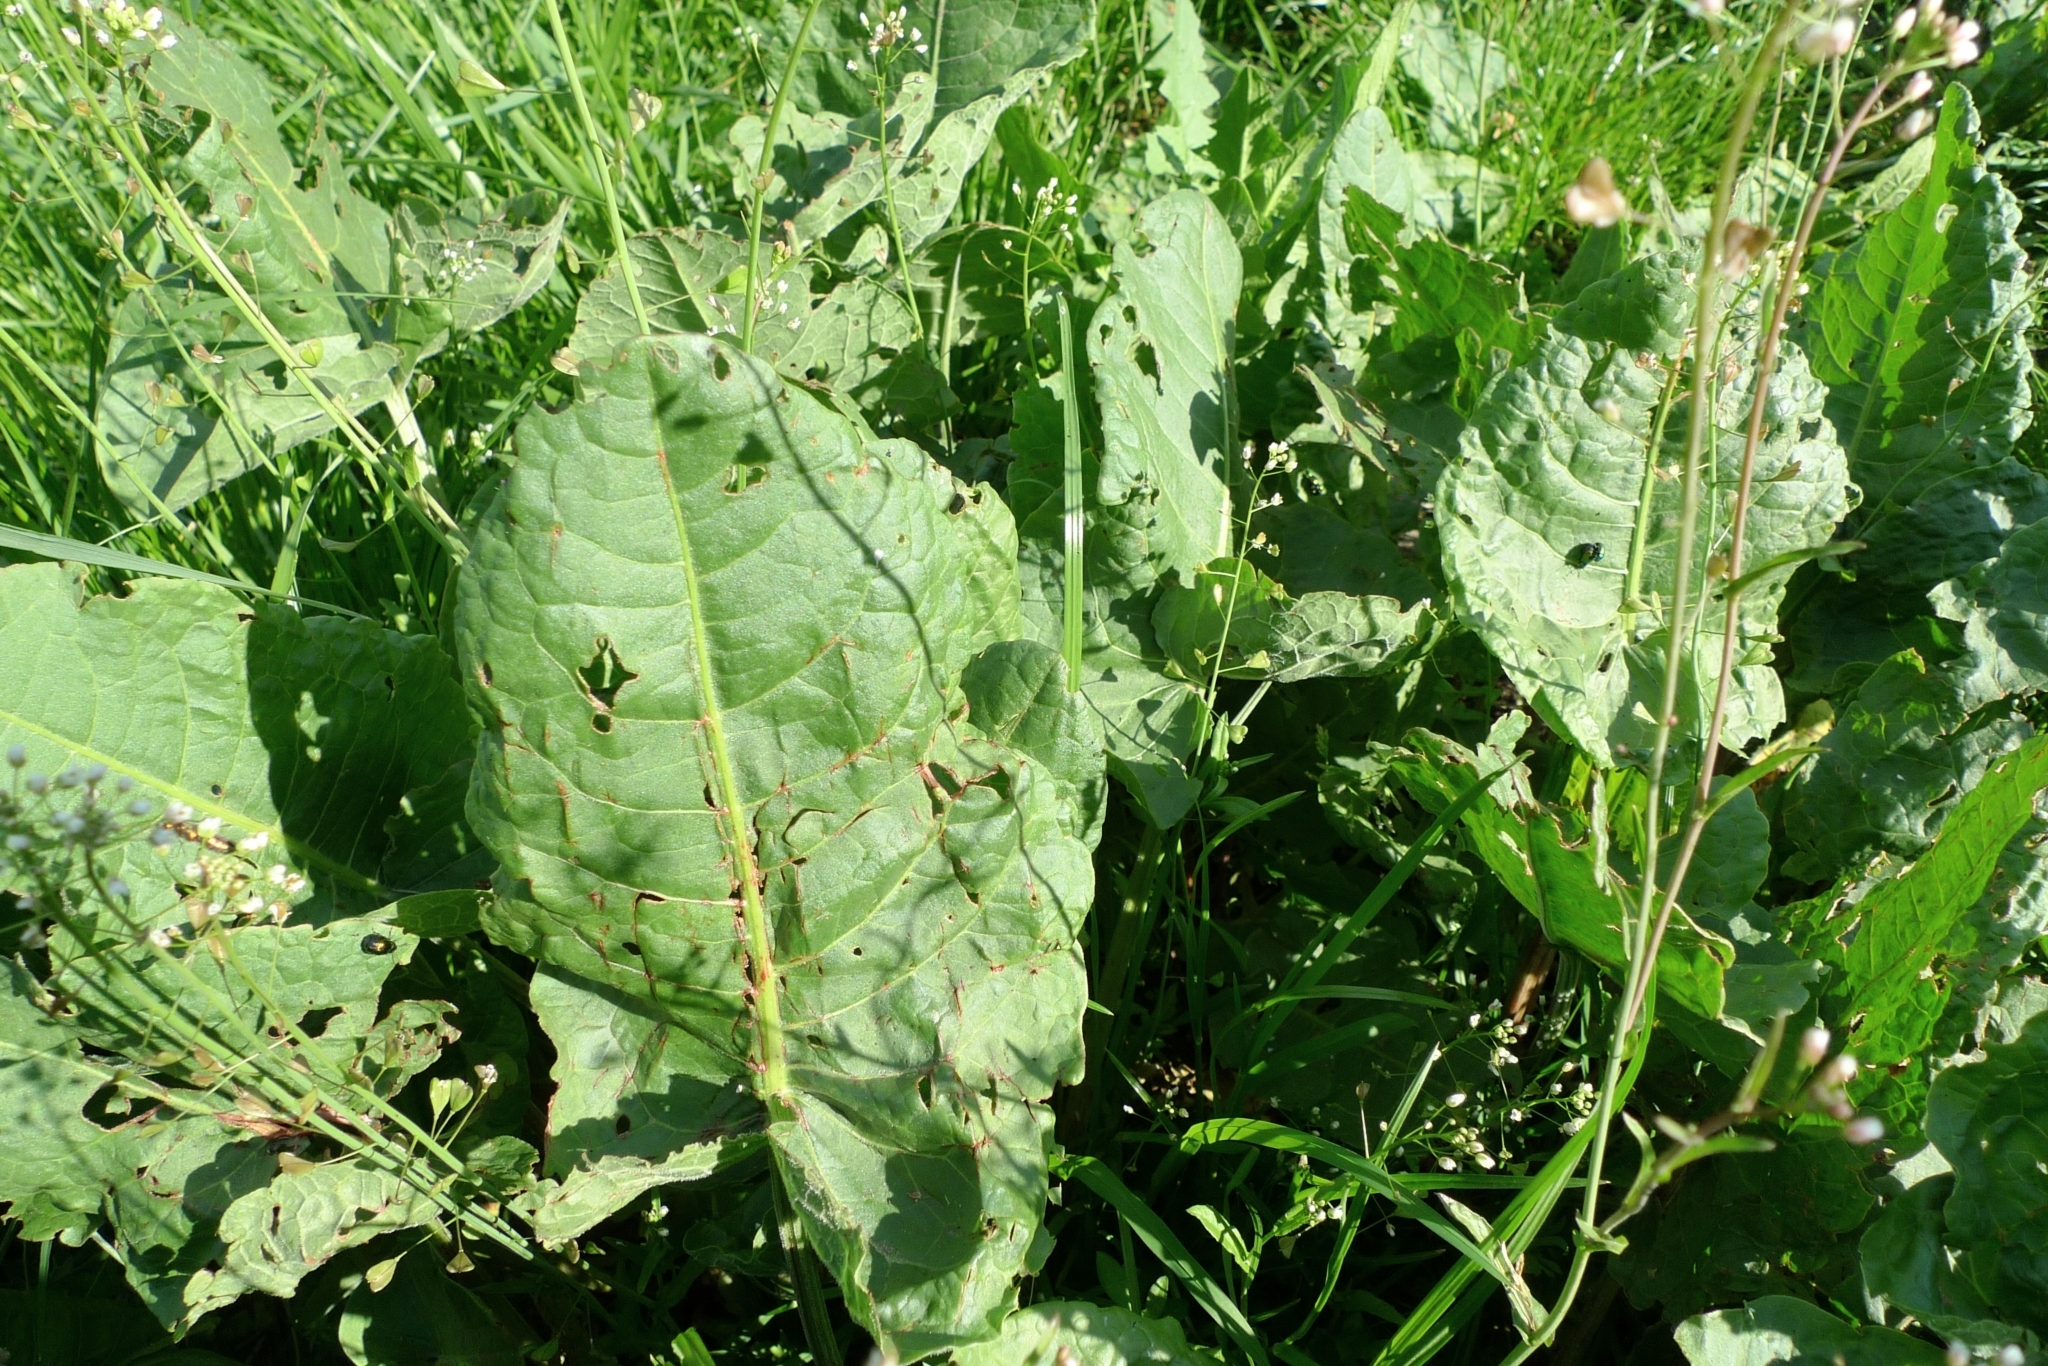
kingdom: Animalia
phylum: Arthropoda
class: Insecta
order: Coleoptera
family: Chrysomelidae
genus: Gastrophysa
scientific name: Gastrophysa polygoni
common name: Knotweed leaf beetle
